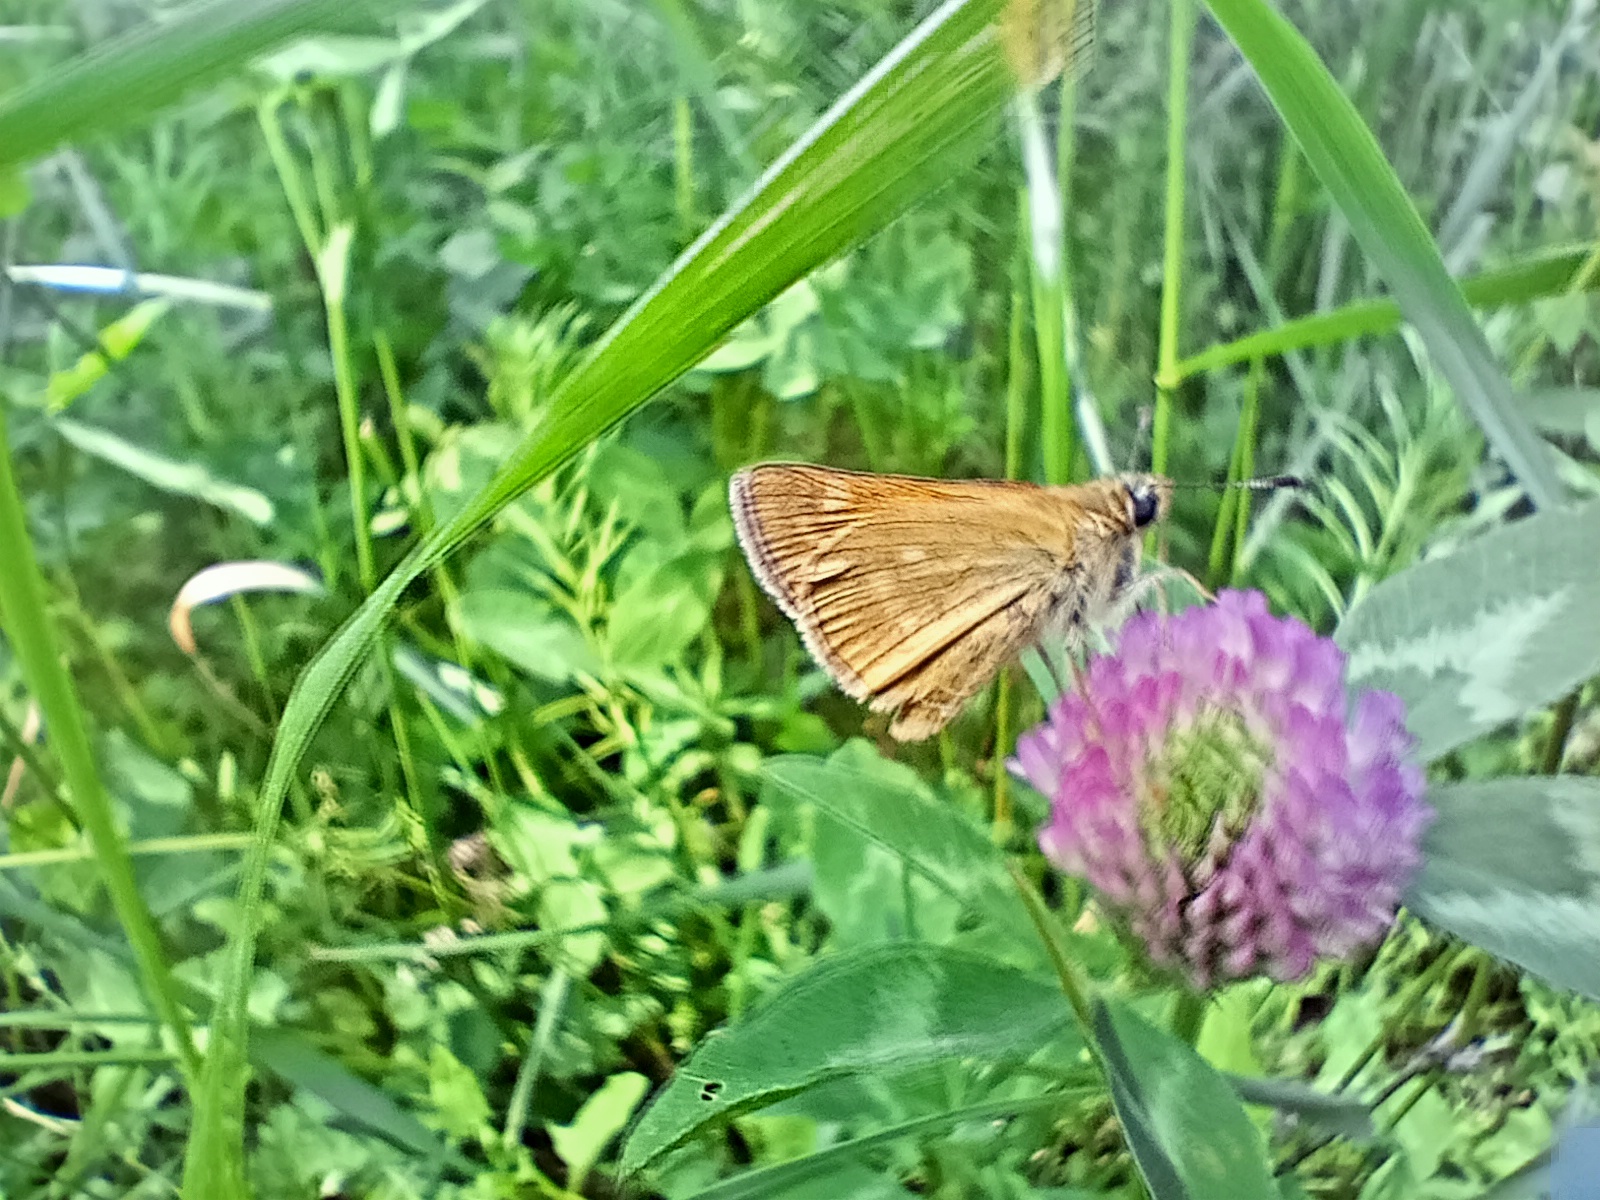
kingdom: Animalia
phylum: Arthropoda
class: Insecta
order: Lepidoptera
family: Hesperiidae
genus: Ochlodes
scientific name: Ochlodes venata
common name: Large skipper
